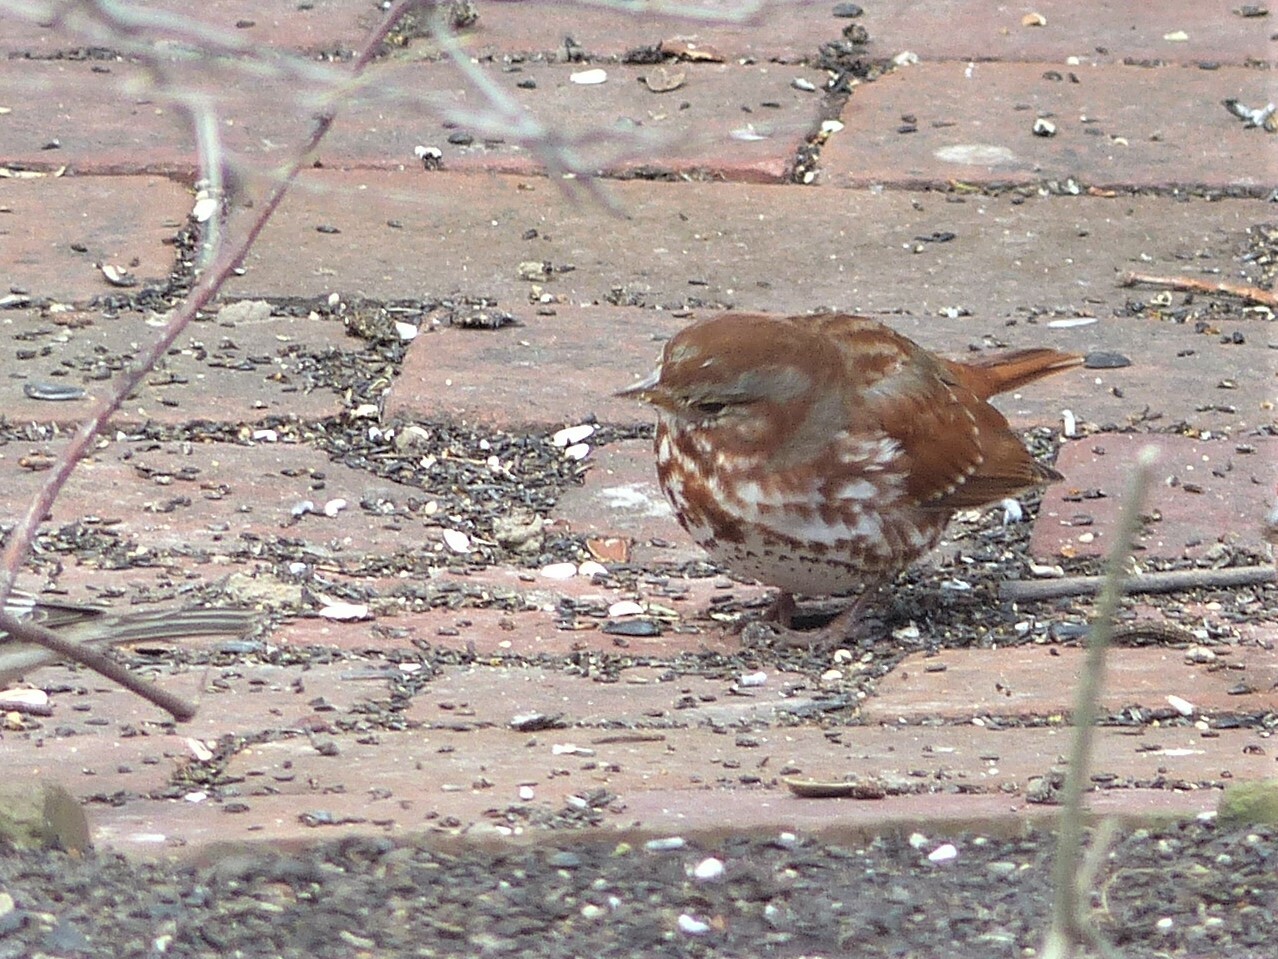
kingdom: Animalia
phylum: Chordata
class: Aves
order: Passeriformes
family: Passerellidae
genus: Passerella
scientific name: Passerella iliaca
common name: Fox sparrow
